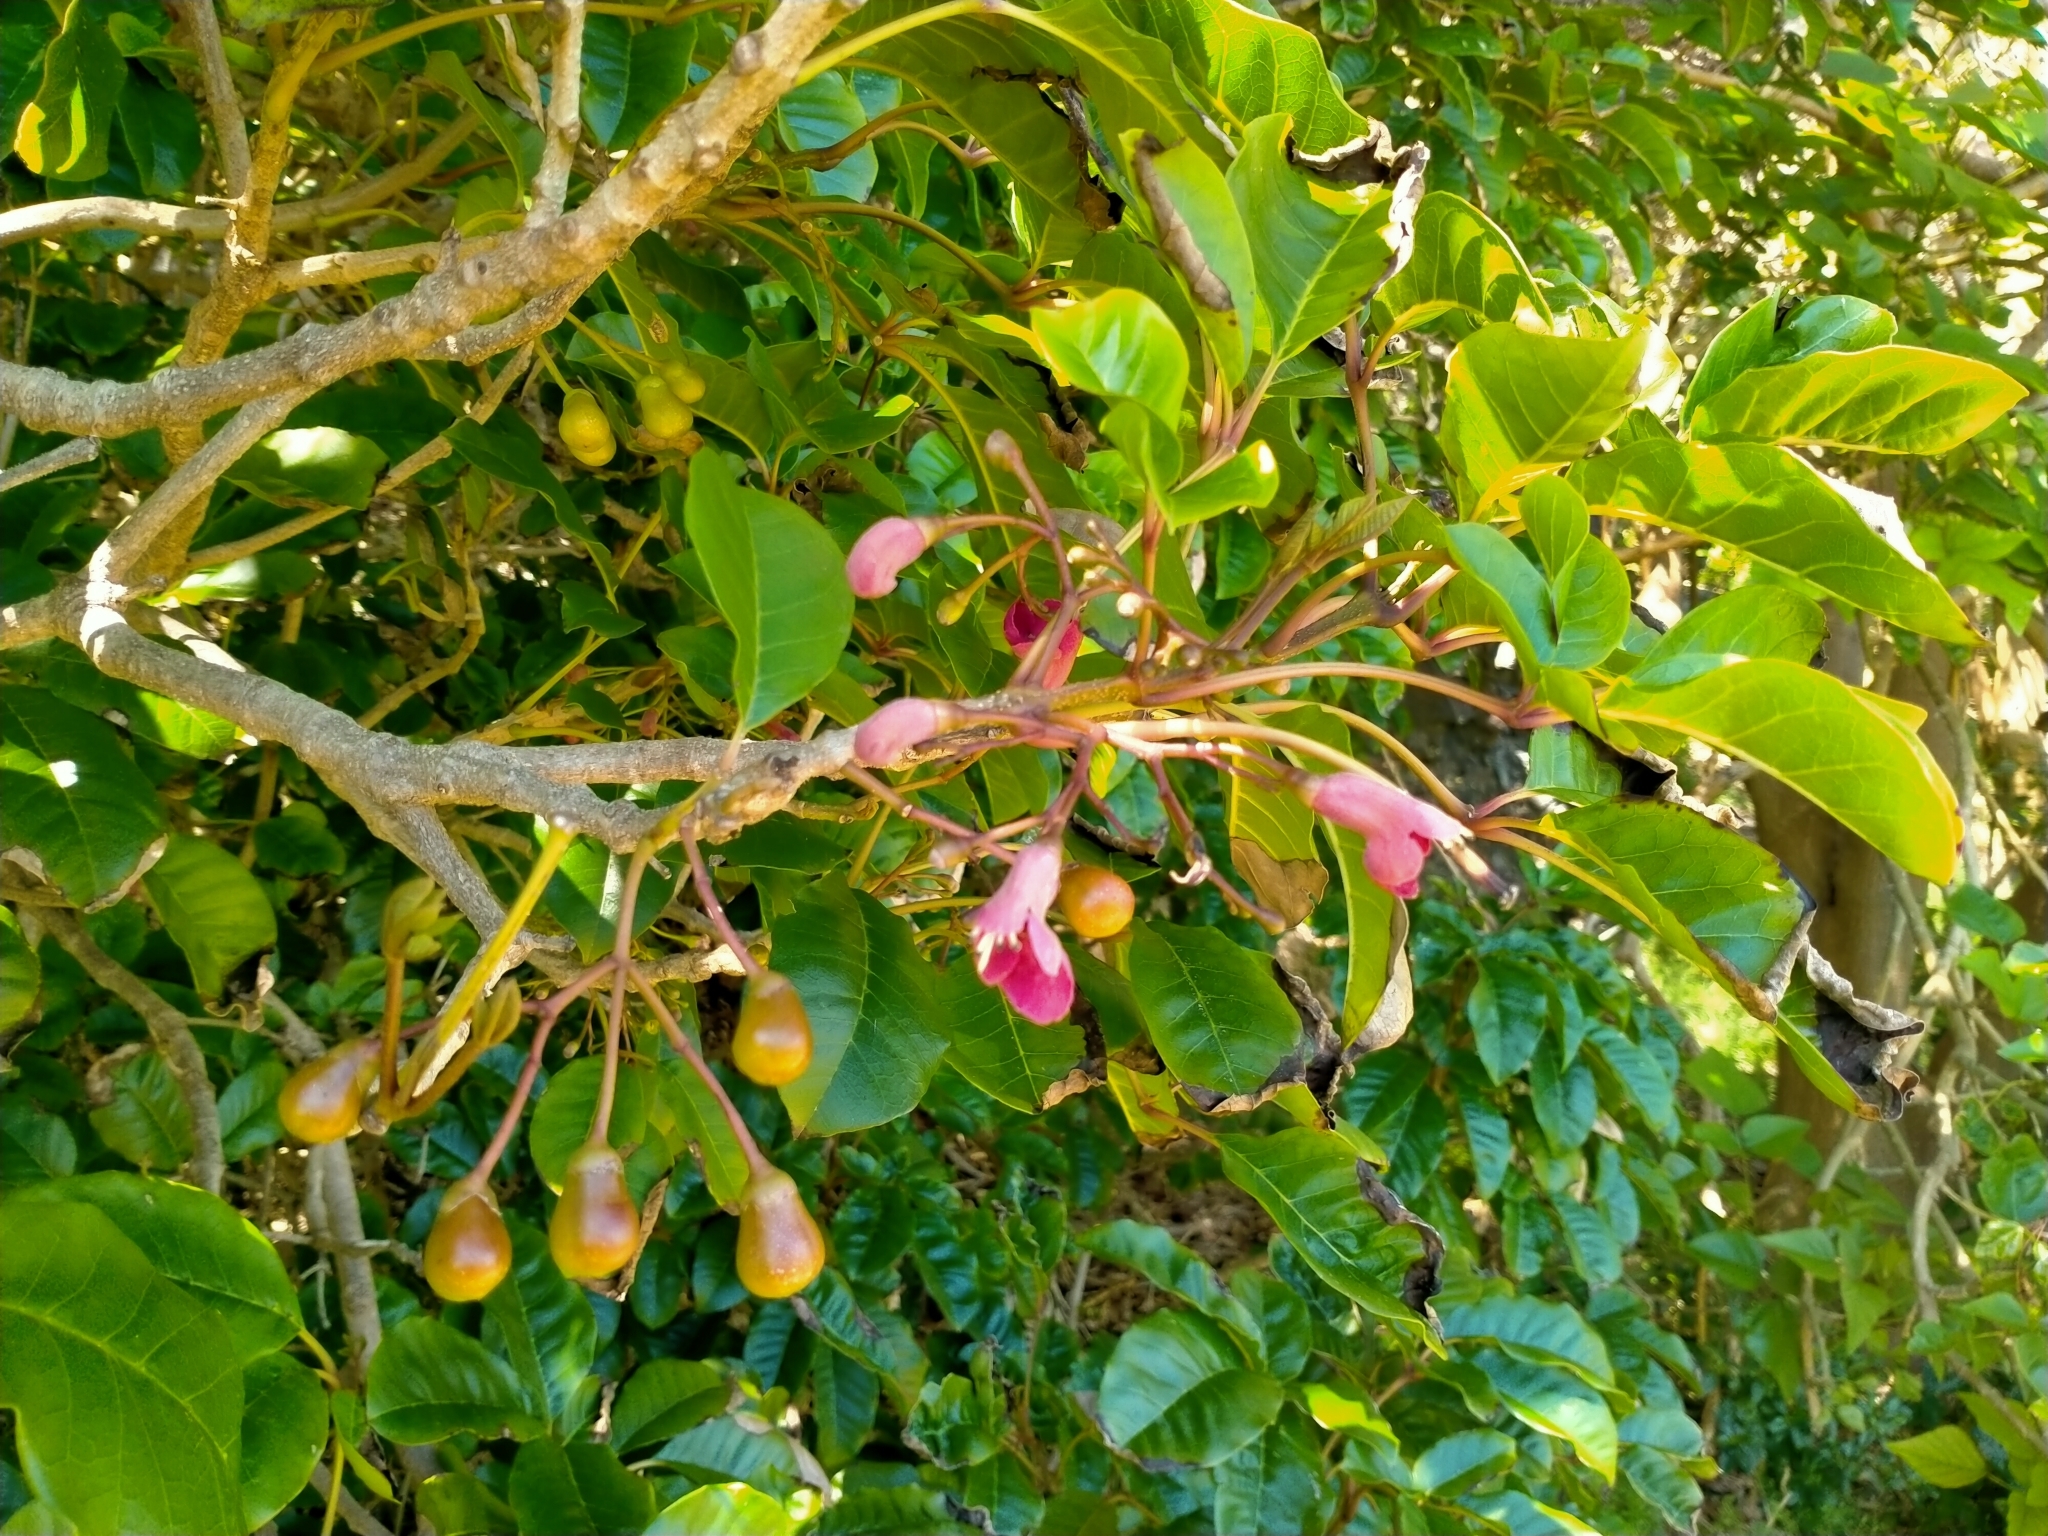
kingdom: Plantae
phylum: Tracheophyta
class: Magnoliopsida
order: Lamiales
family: Lamiaceae
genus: Vitex
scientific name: Vitex lucens
